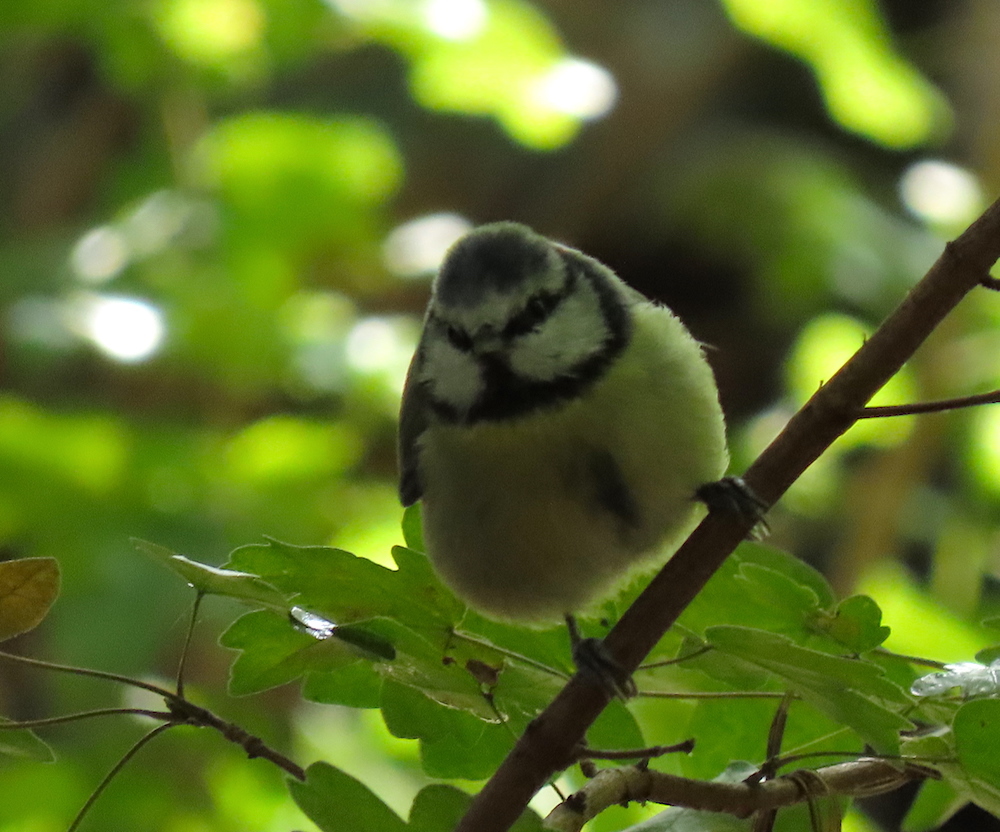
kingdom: Animalia
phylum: Chordata
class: Aves
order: Passeriformes
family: Paridae
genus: Cyanistes
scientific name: Cyanistes caeruleus
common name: Eurasian blue tit
